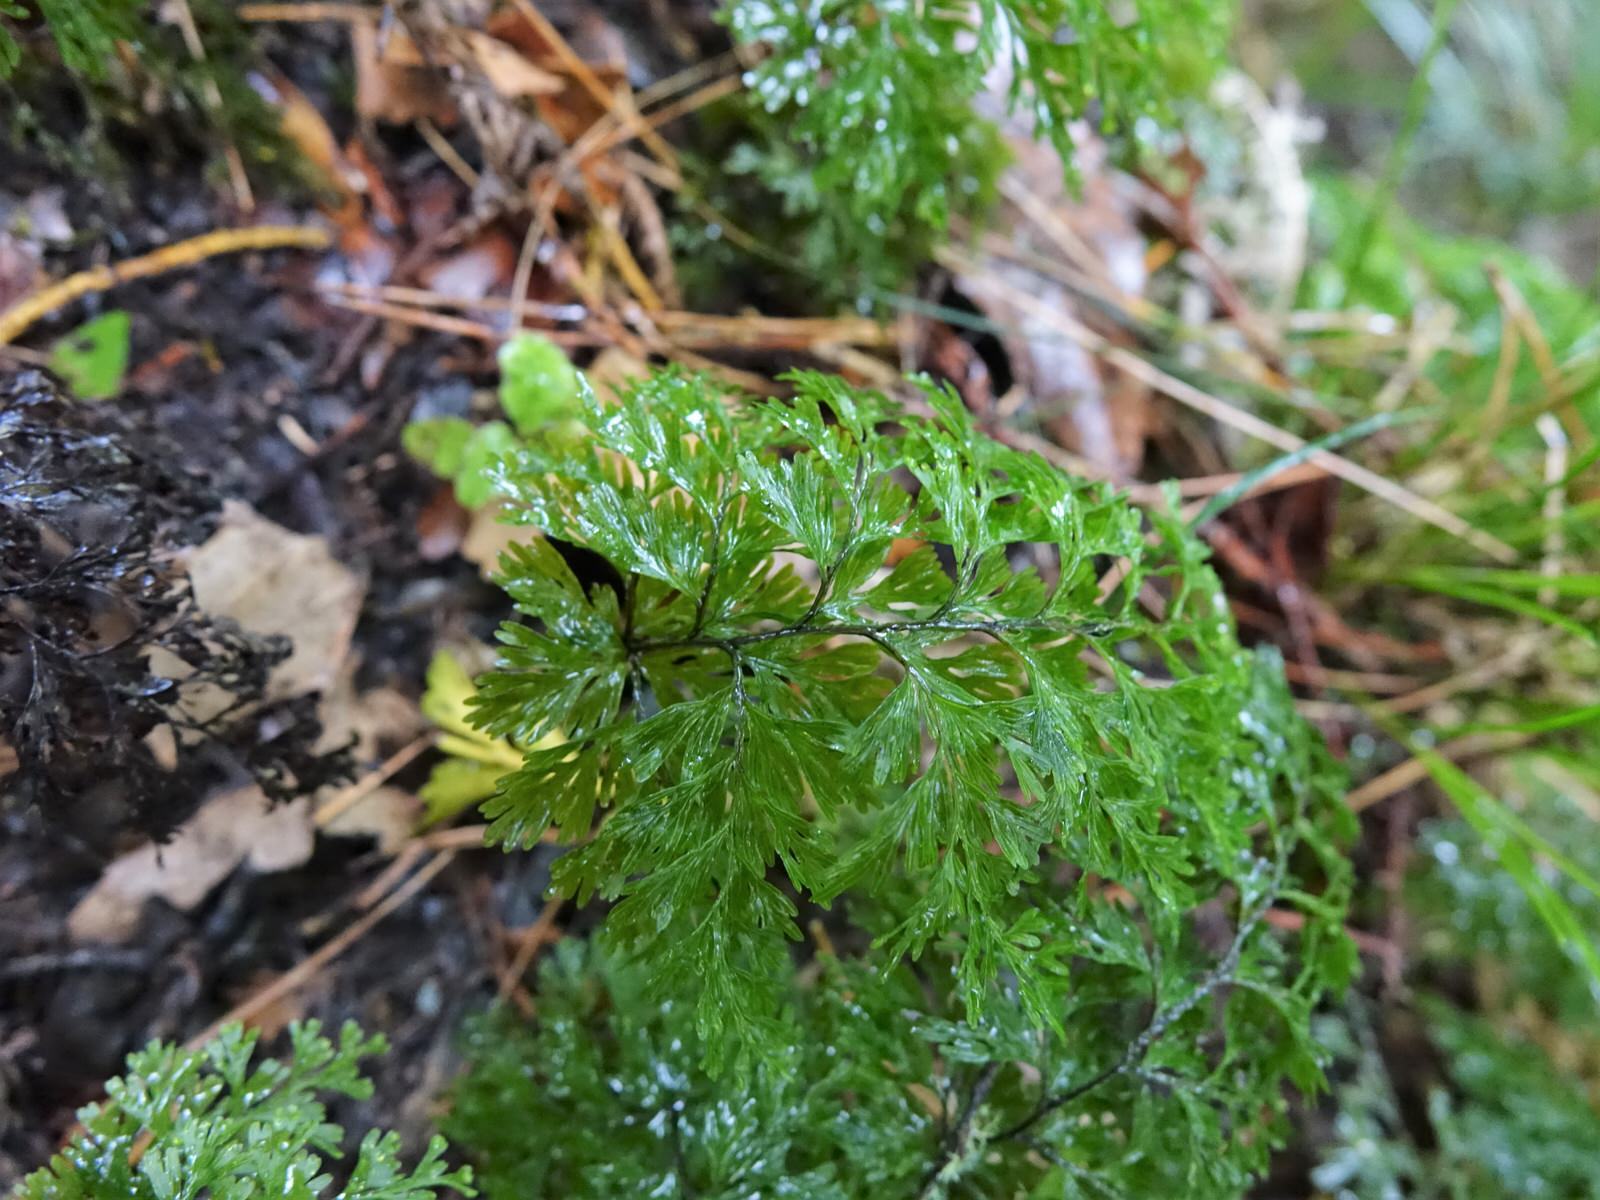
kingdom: Plantae
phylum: Tracheophyta
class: Polypodiopsida
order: Hymenophyllales
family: Hymenophyllaceae
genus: Hymenophyllum
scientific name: Hymenophyllum demissum
